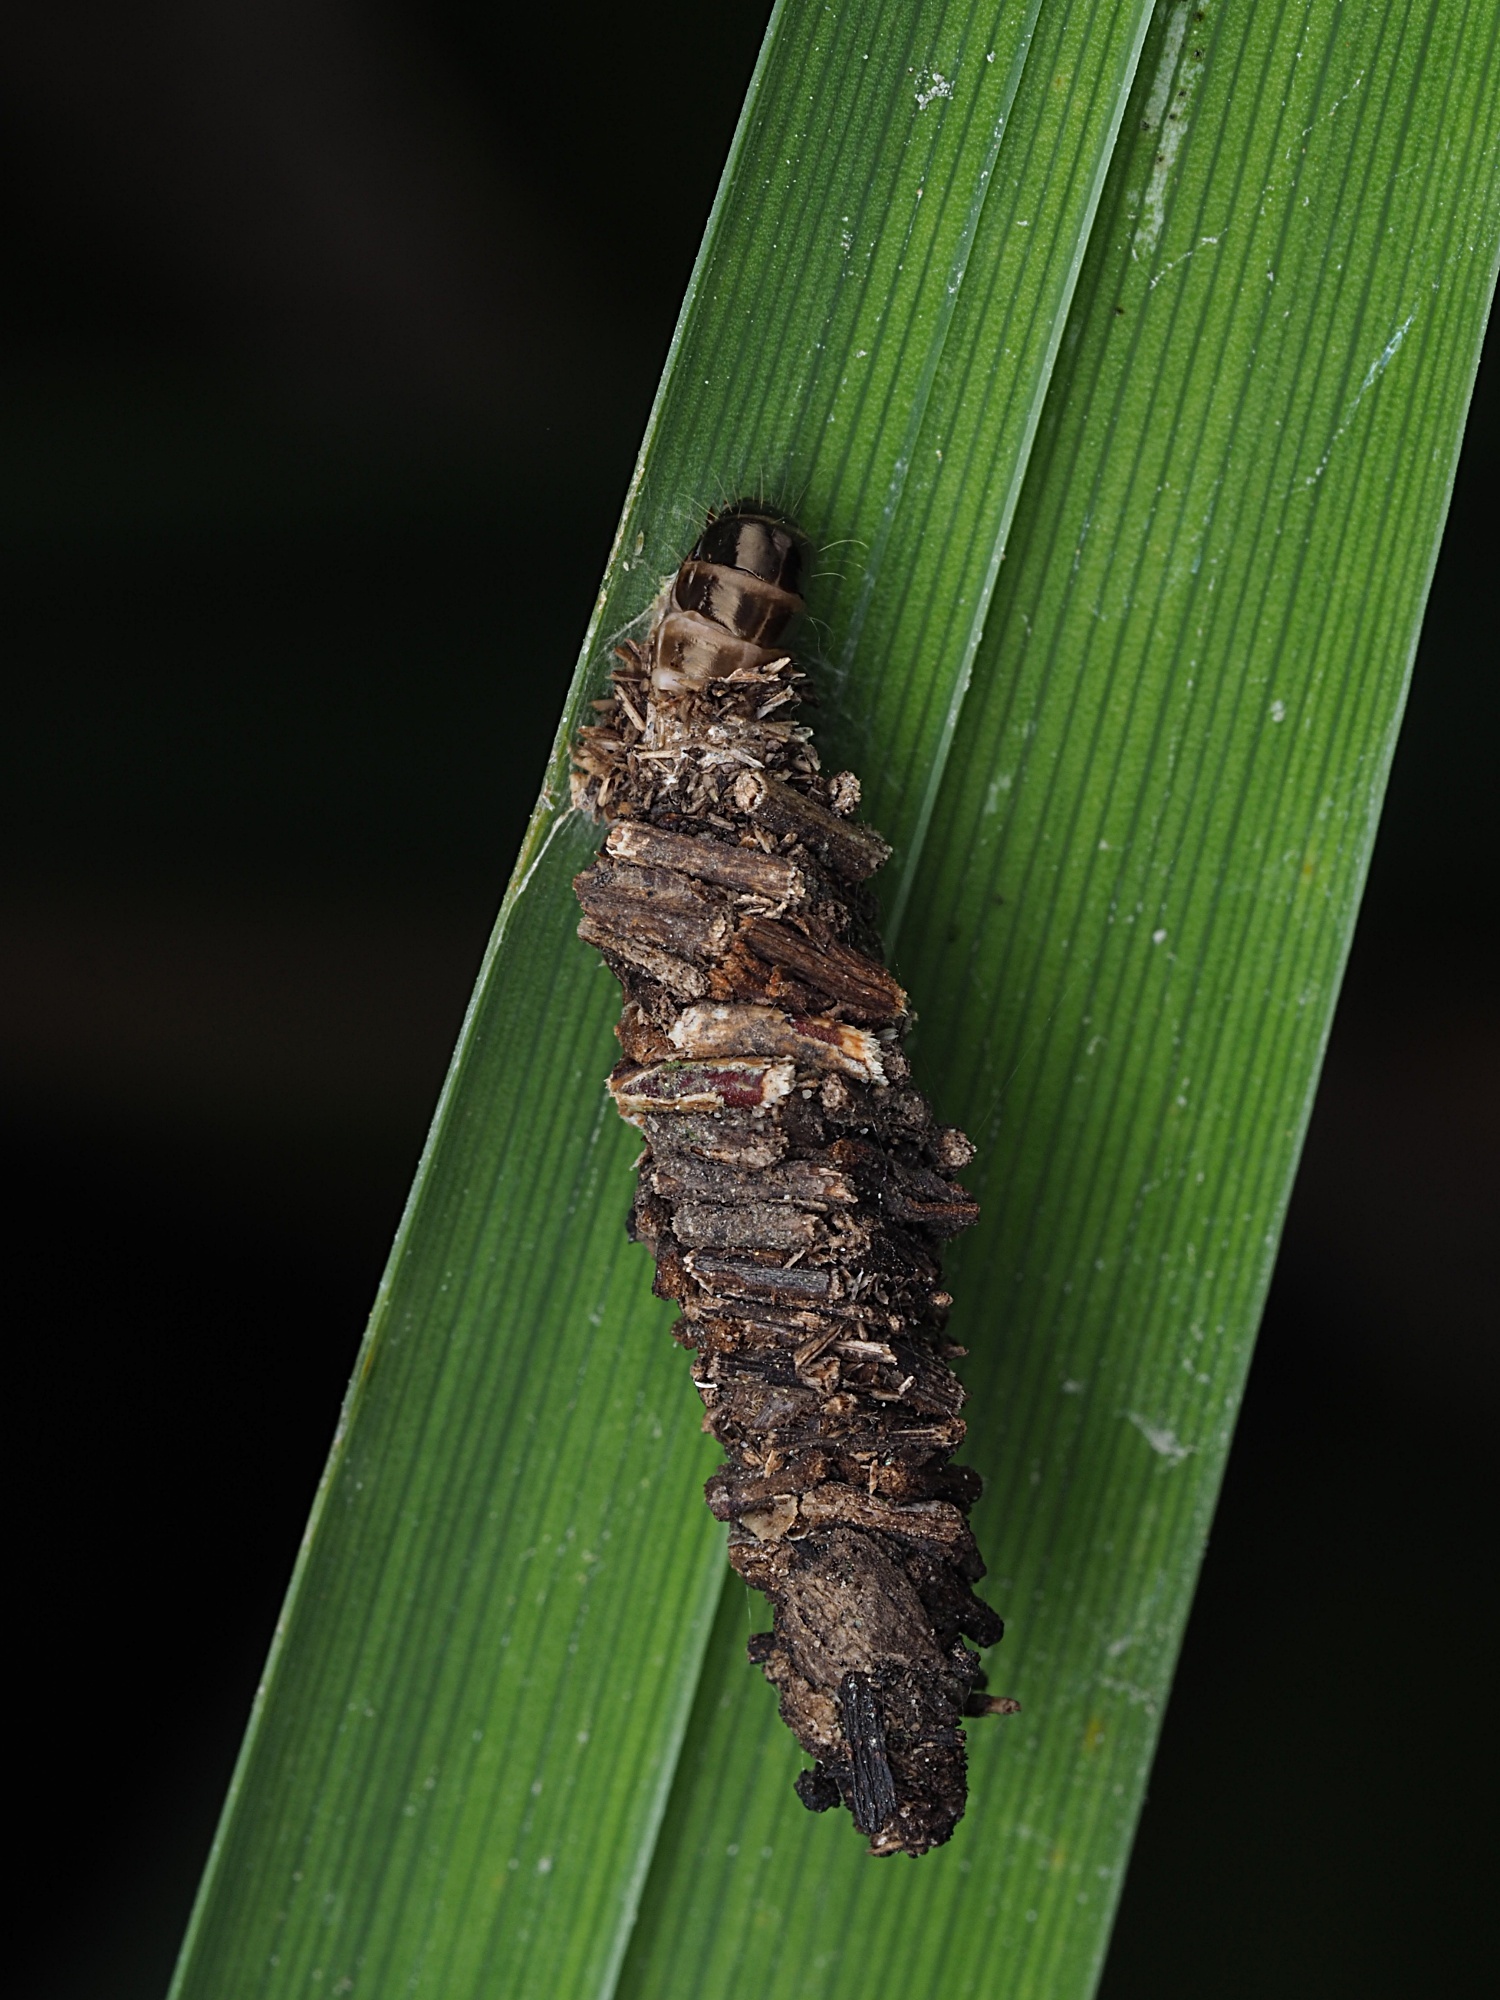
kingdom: Animalia
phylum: Arthropoda
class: Insecta
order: Lepidoptera
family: Psychidae
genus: Lepidoscia
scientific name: Lepidoscia protorna
